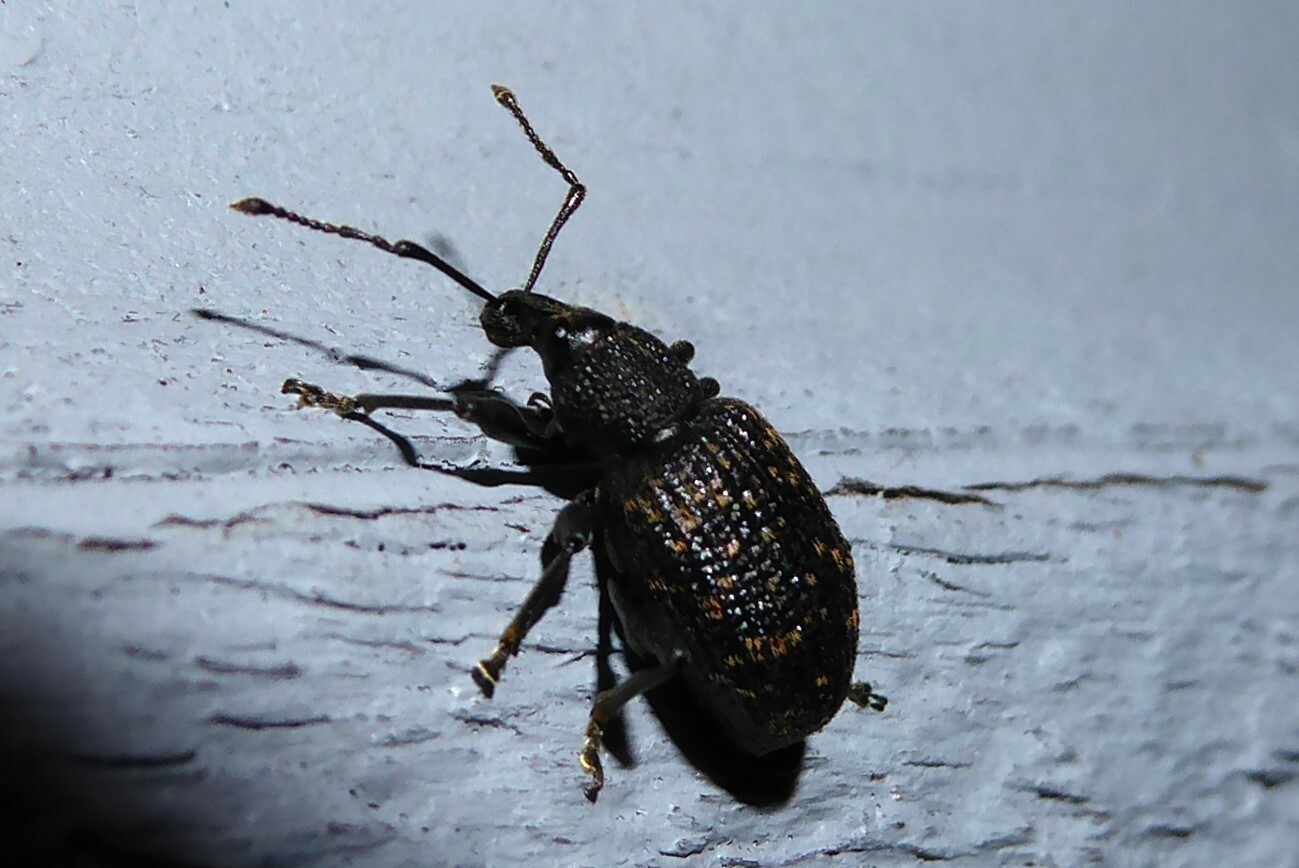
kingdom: Animalia
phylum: Arthropoda
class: Insecta
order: Coleoptera
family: Curculionidae
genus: Otiorhynchus
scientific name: Otiorhynchus sulcatus
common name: Black vine weevil
